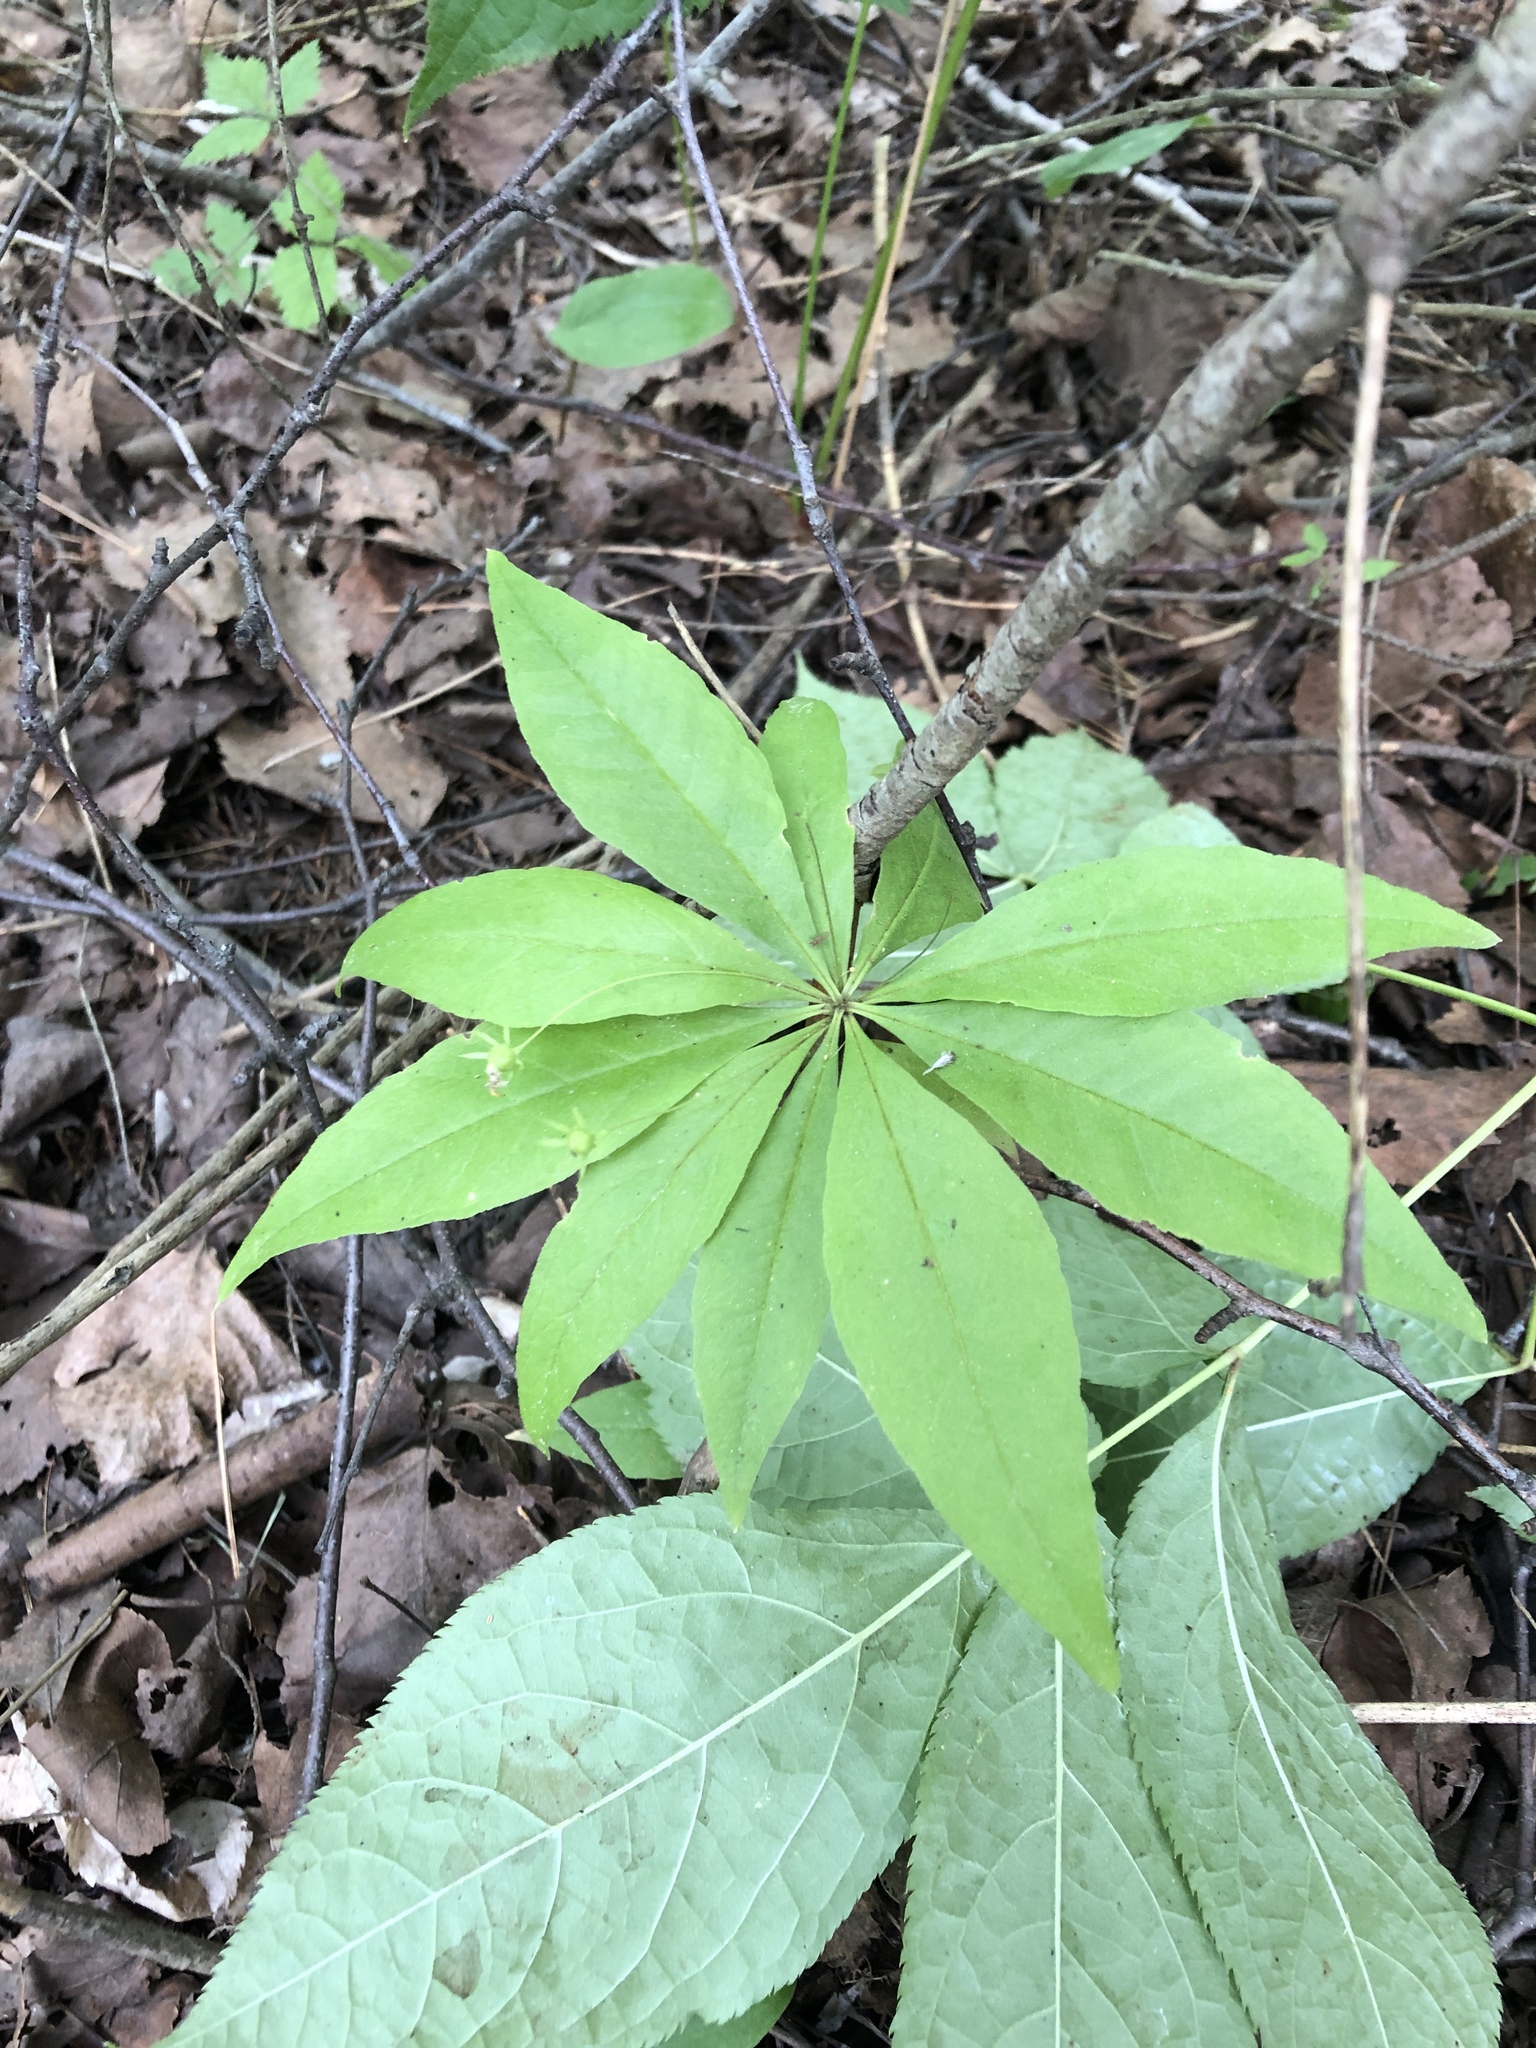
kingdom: Plantae
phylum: Tracheophyta
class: Magnoliopsida
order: Ericales
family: Primulaceae
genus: Lysimachia
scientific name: Lysimachia borealis
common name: American starflower
